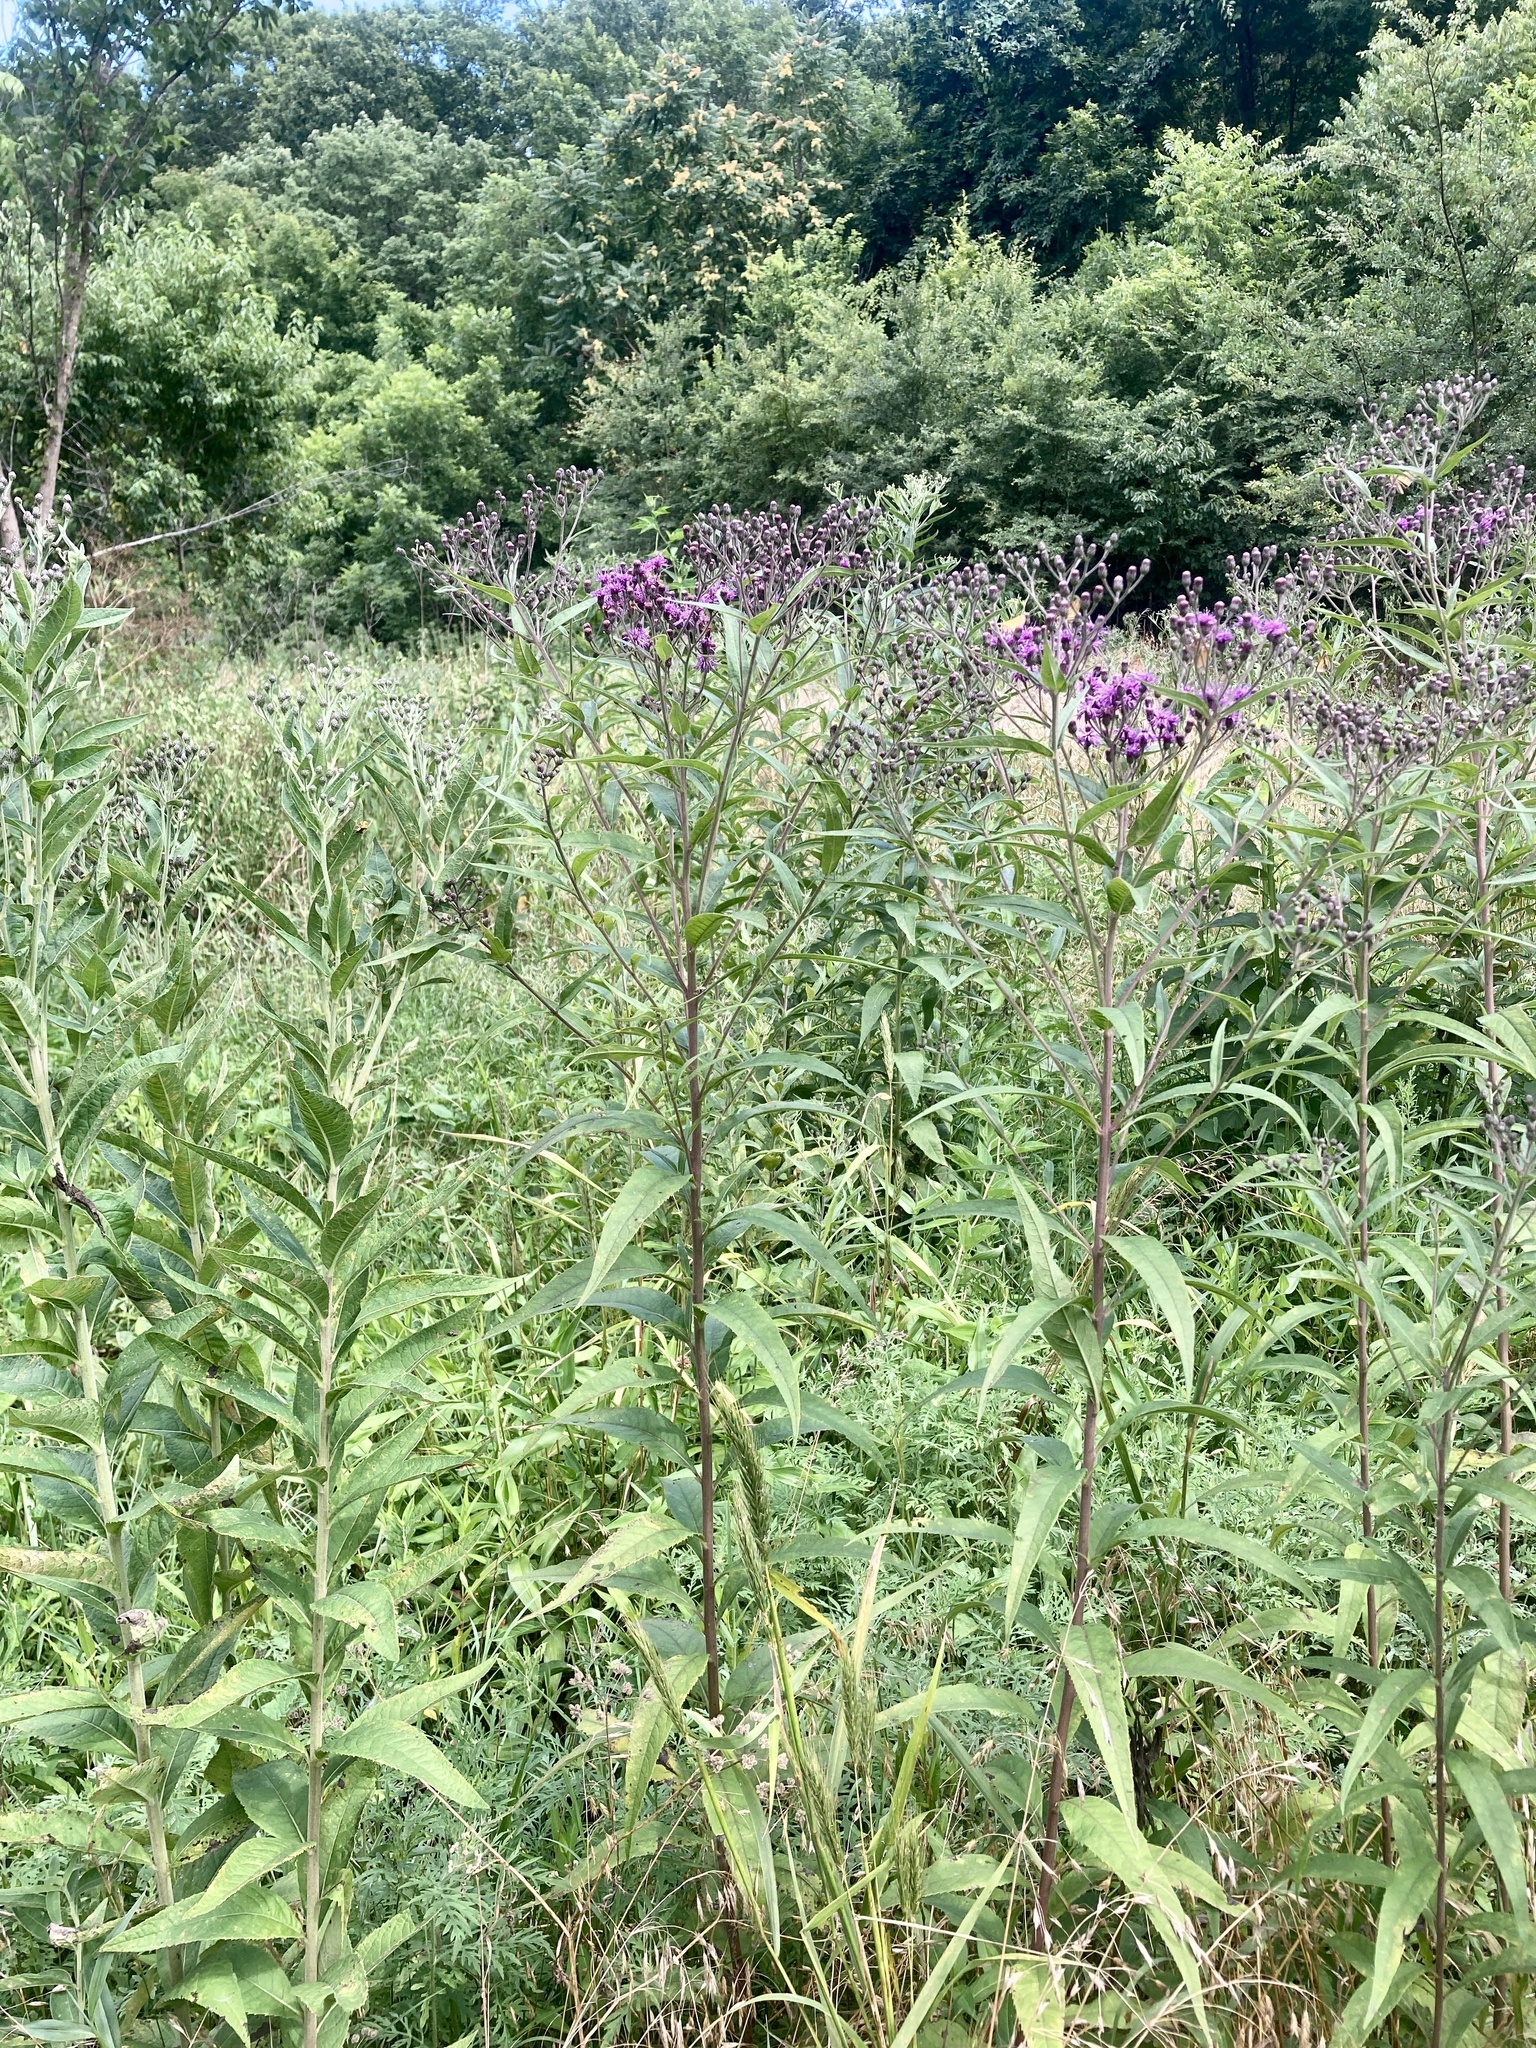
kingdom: Plantae
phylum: Tracheophyta
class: Magnoliopsida
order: Asterales
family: Asteraceae
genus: Vernonia
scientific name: Vernonia gigantea
